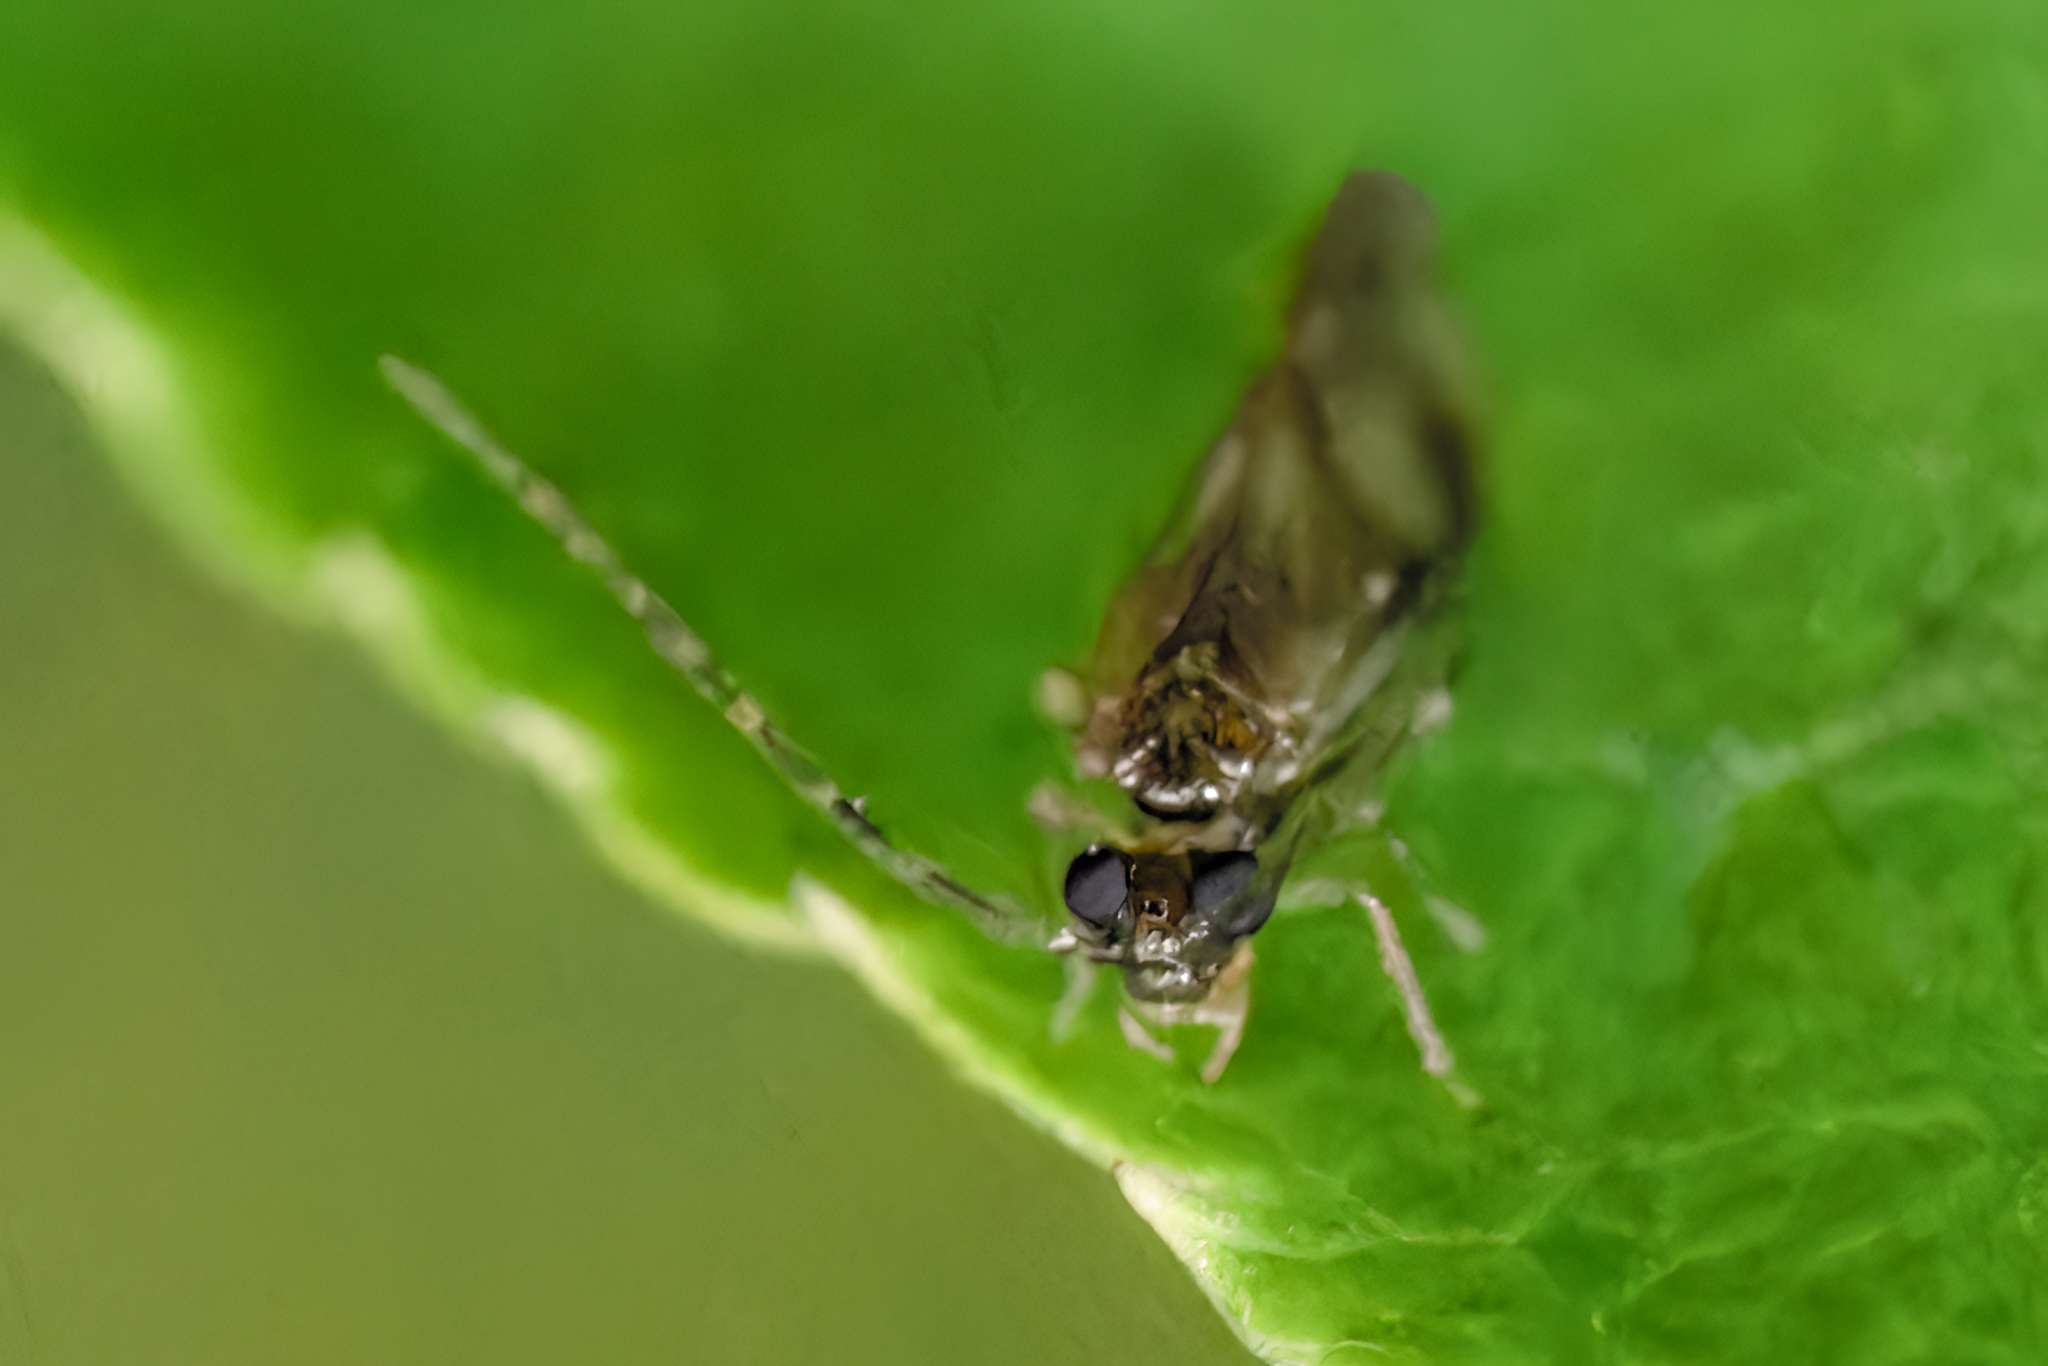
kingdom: Animalia
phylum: Arthropoda
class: Insecta
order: Psocodea
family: Amphipsocidae
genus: Polypsocus
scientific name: Polypsocus corruptus
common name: Corrupt barklouse
